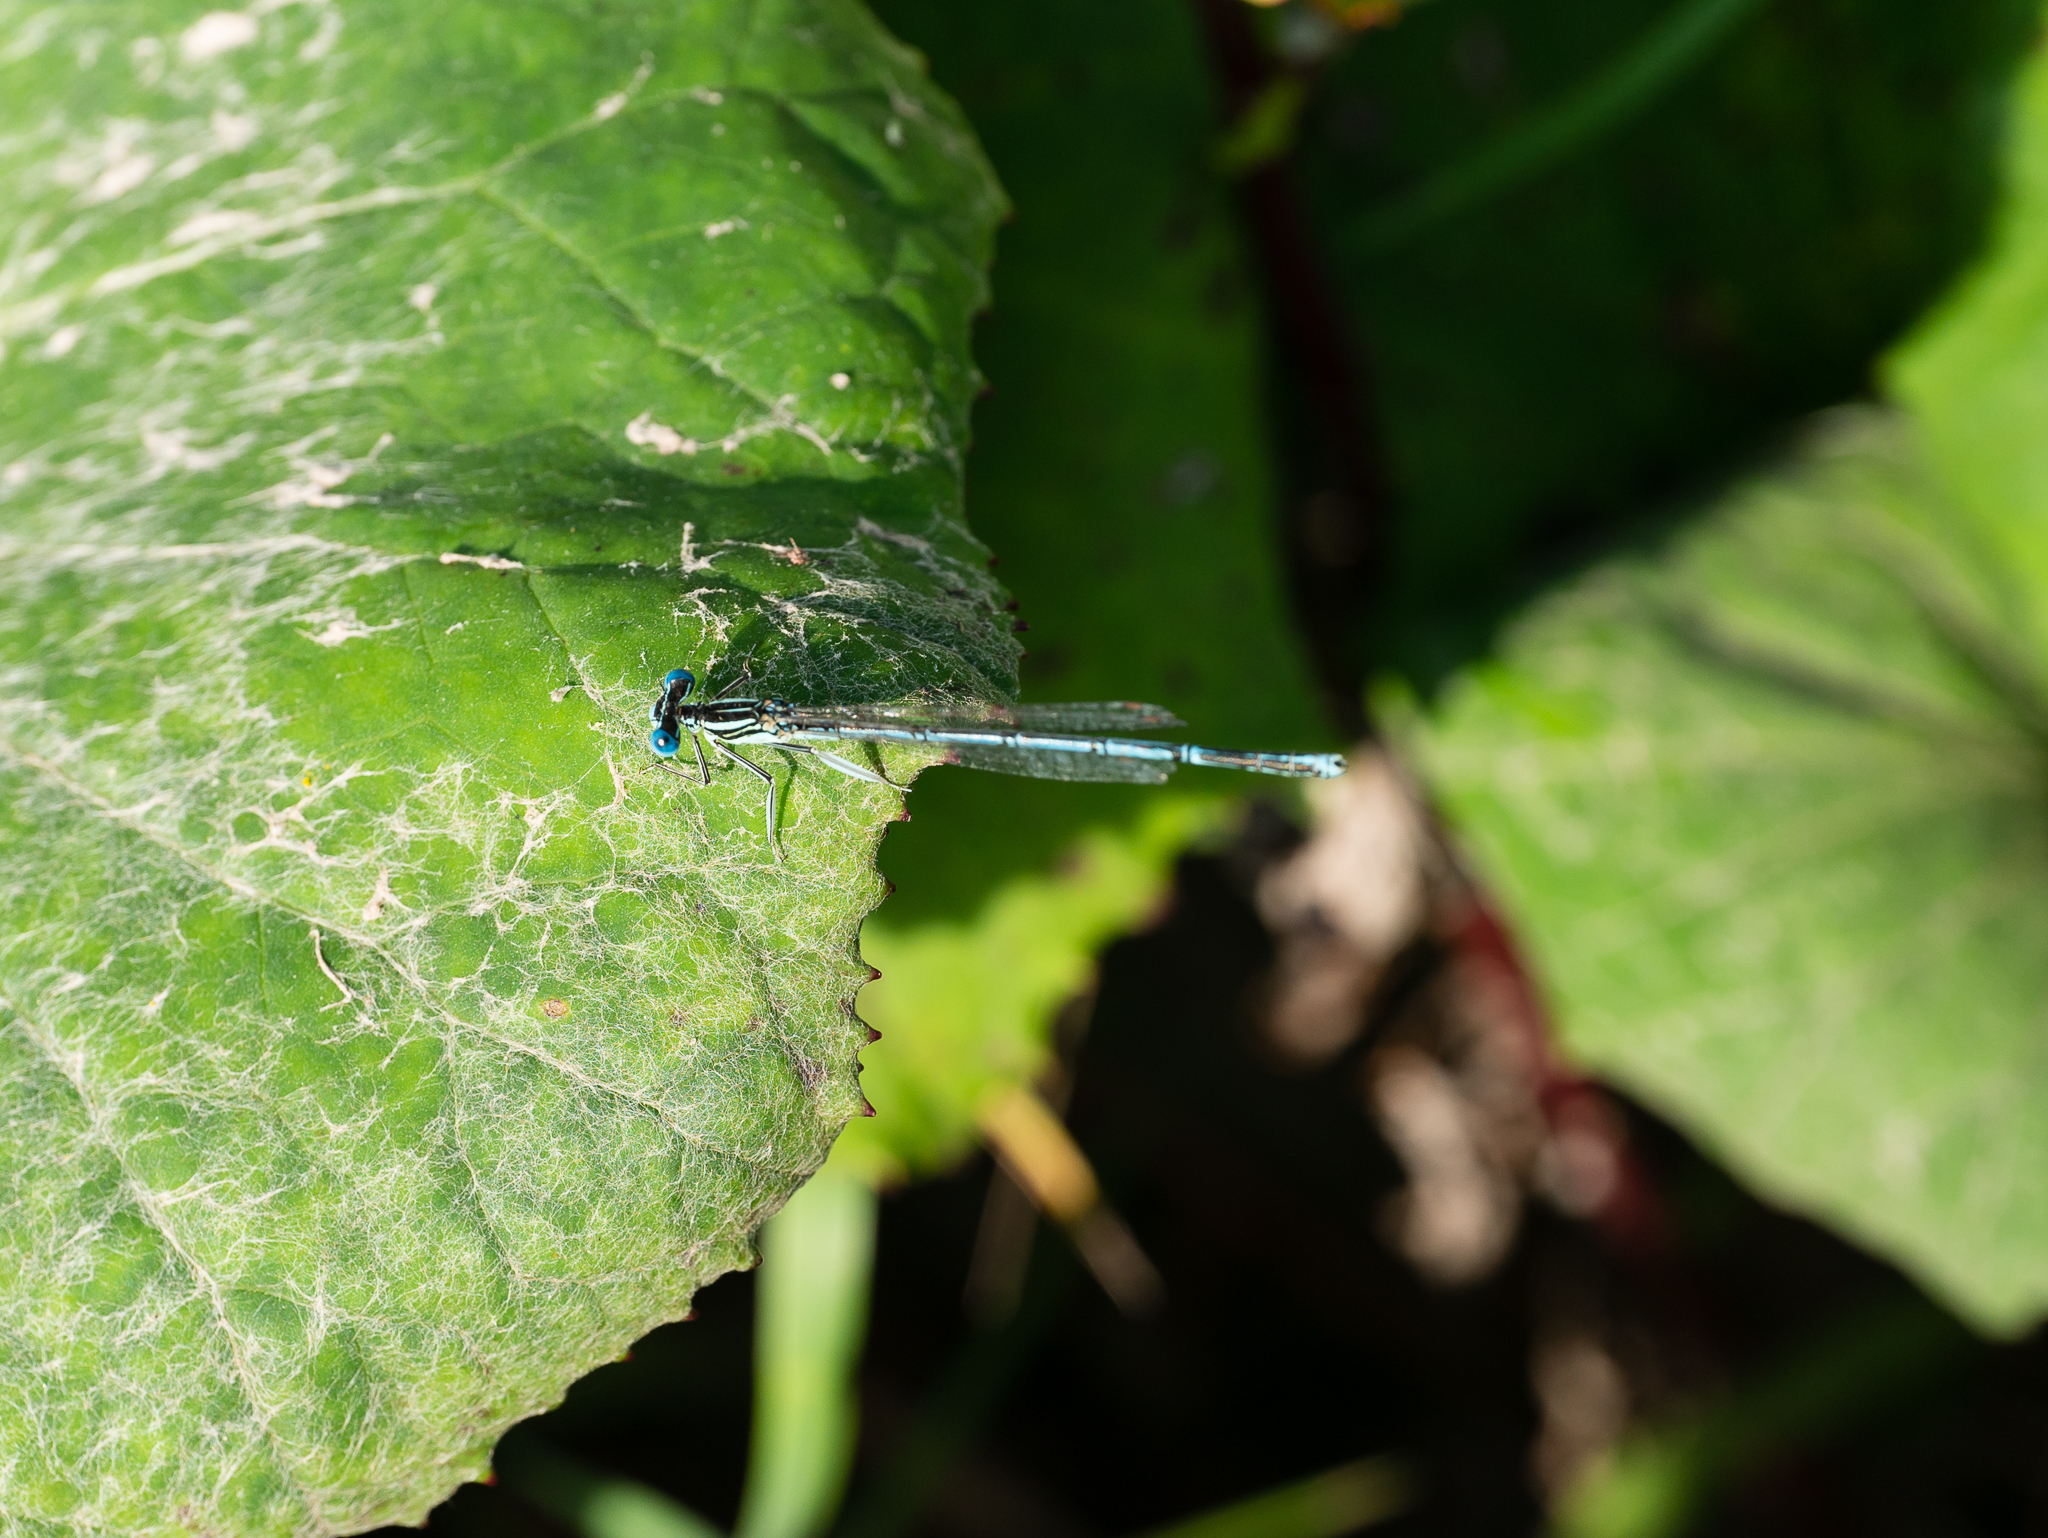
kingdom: Animalia
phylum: Arthropoda
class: Insecta
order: Odonata
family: Platycnemididae
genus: Platycnemis
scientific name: Platycnemis pennipes
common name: White-legged damselfly
